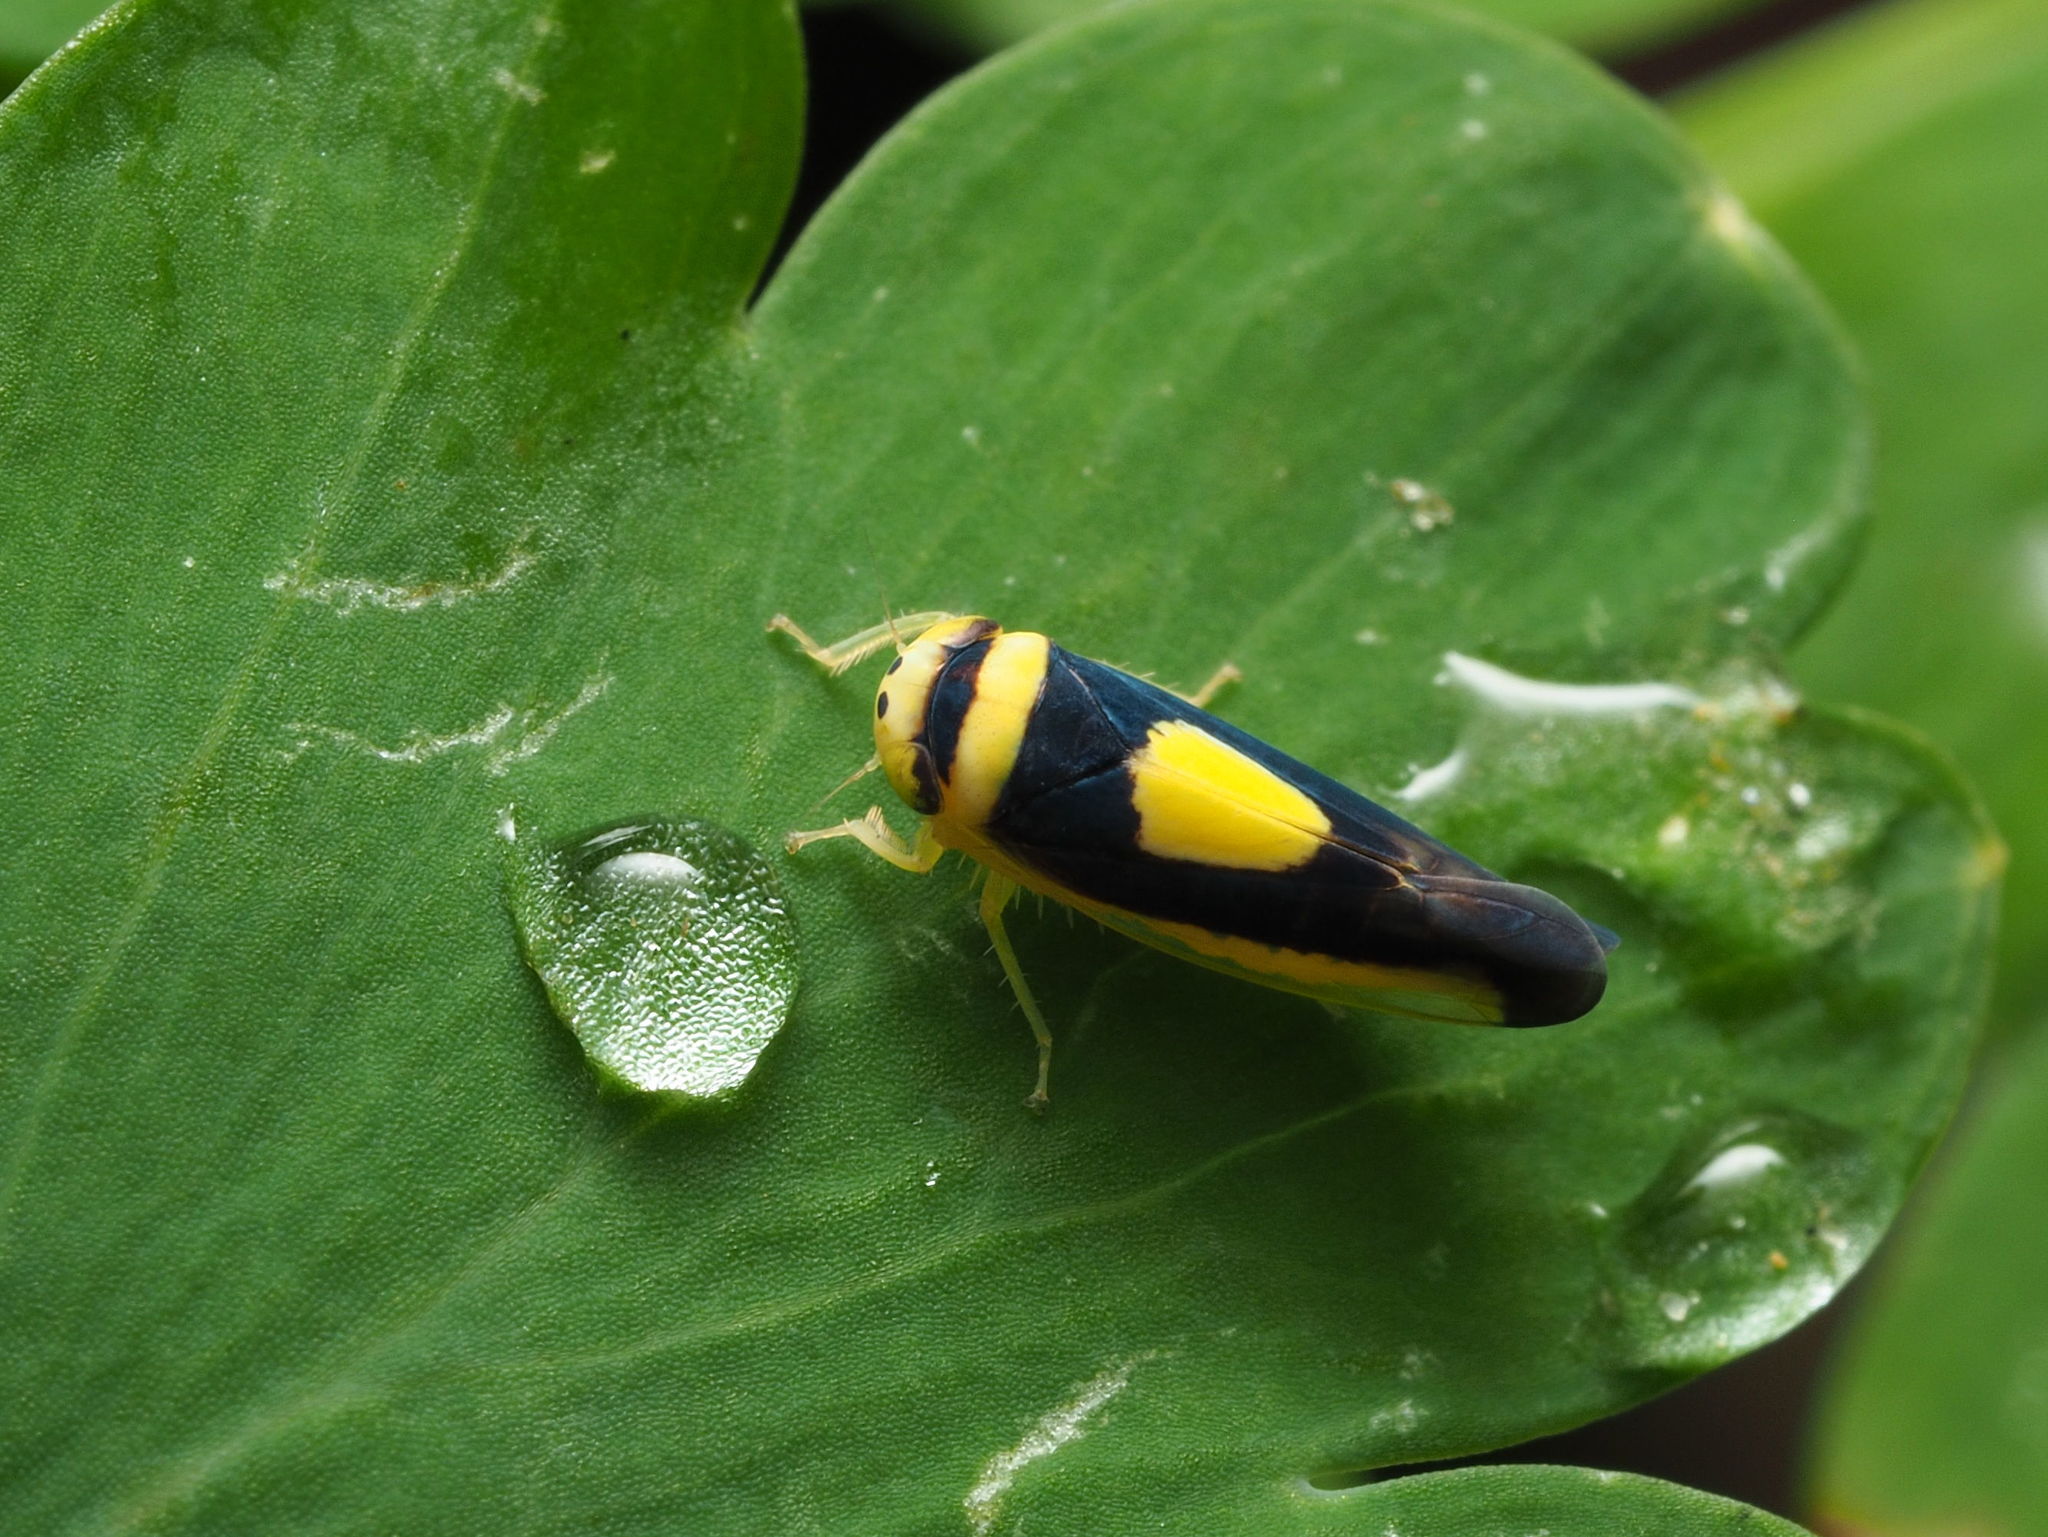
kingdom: Animalia
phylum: Arthropoda
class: Insecta
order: Hemiptera
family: Cicadellidae
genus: Colladonus
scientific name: Colladonus clitellarius
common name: The saddleback leafhopper
